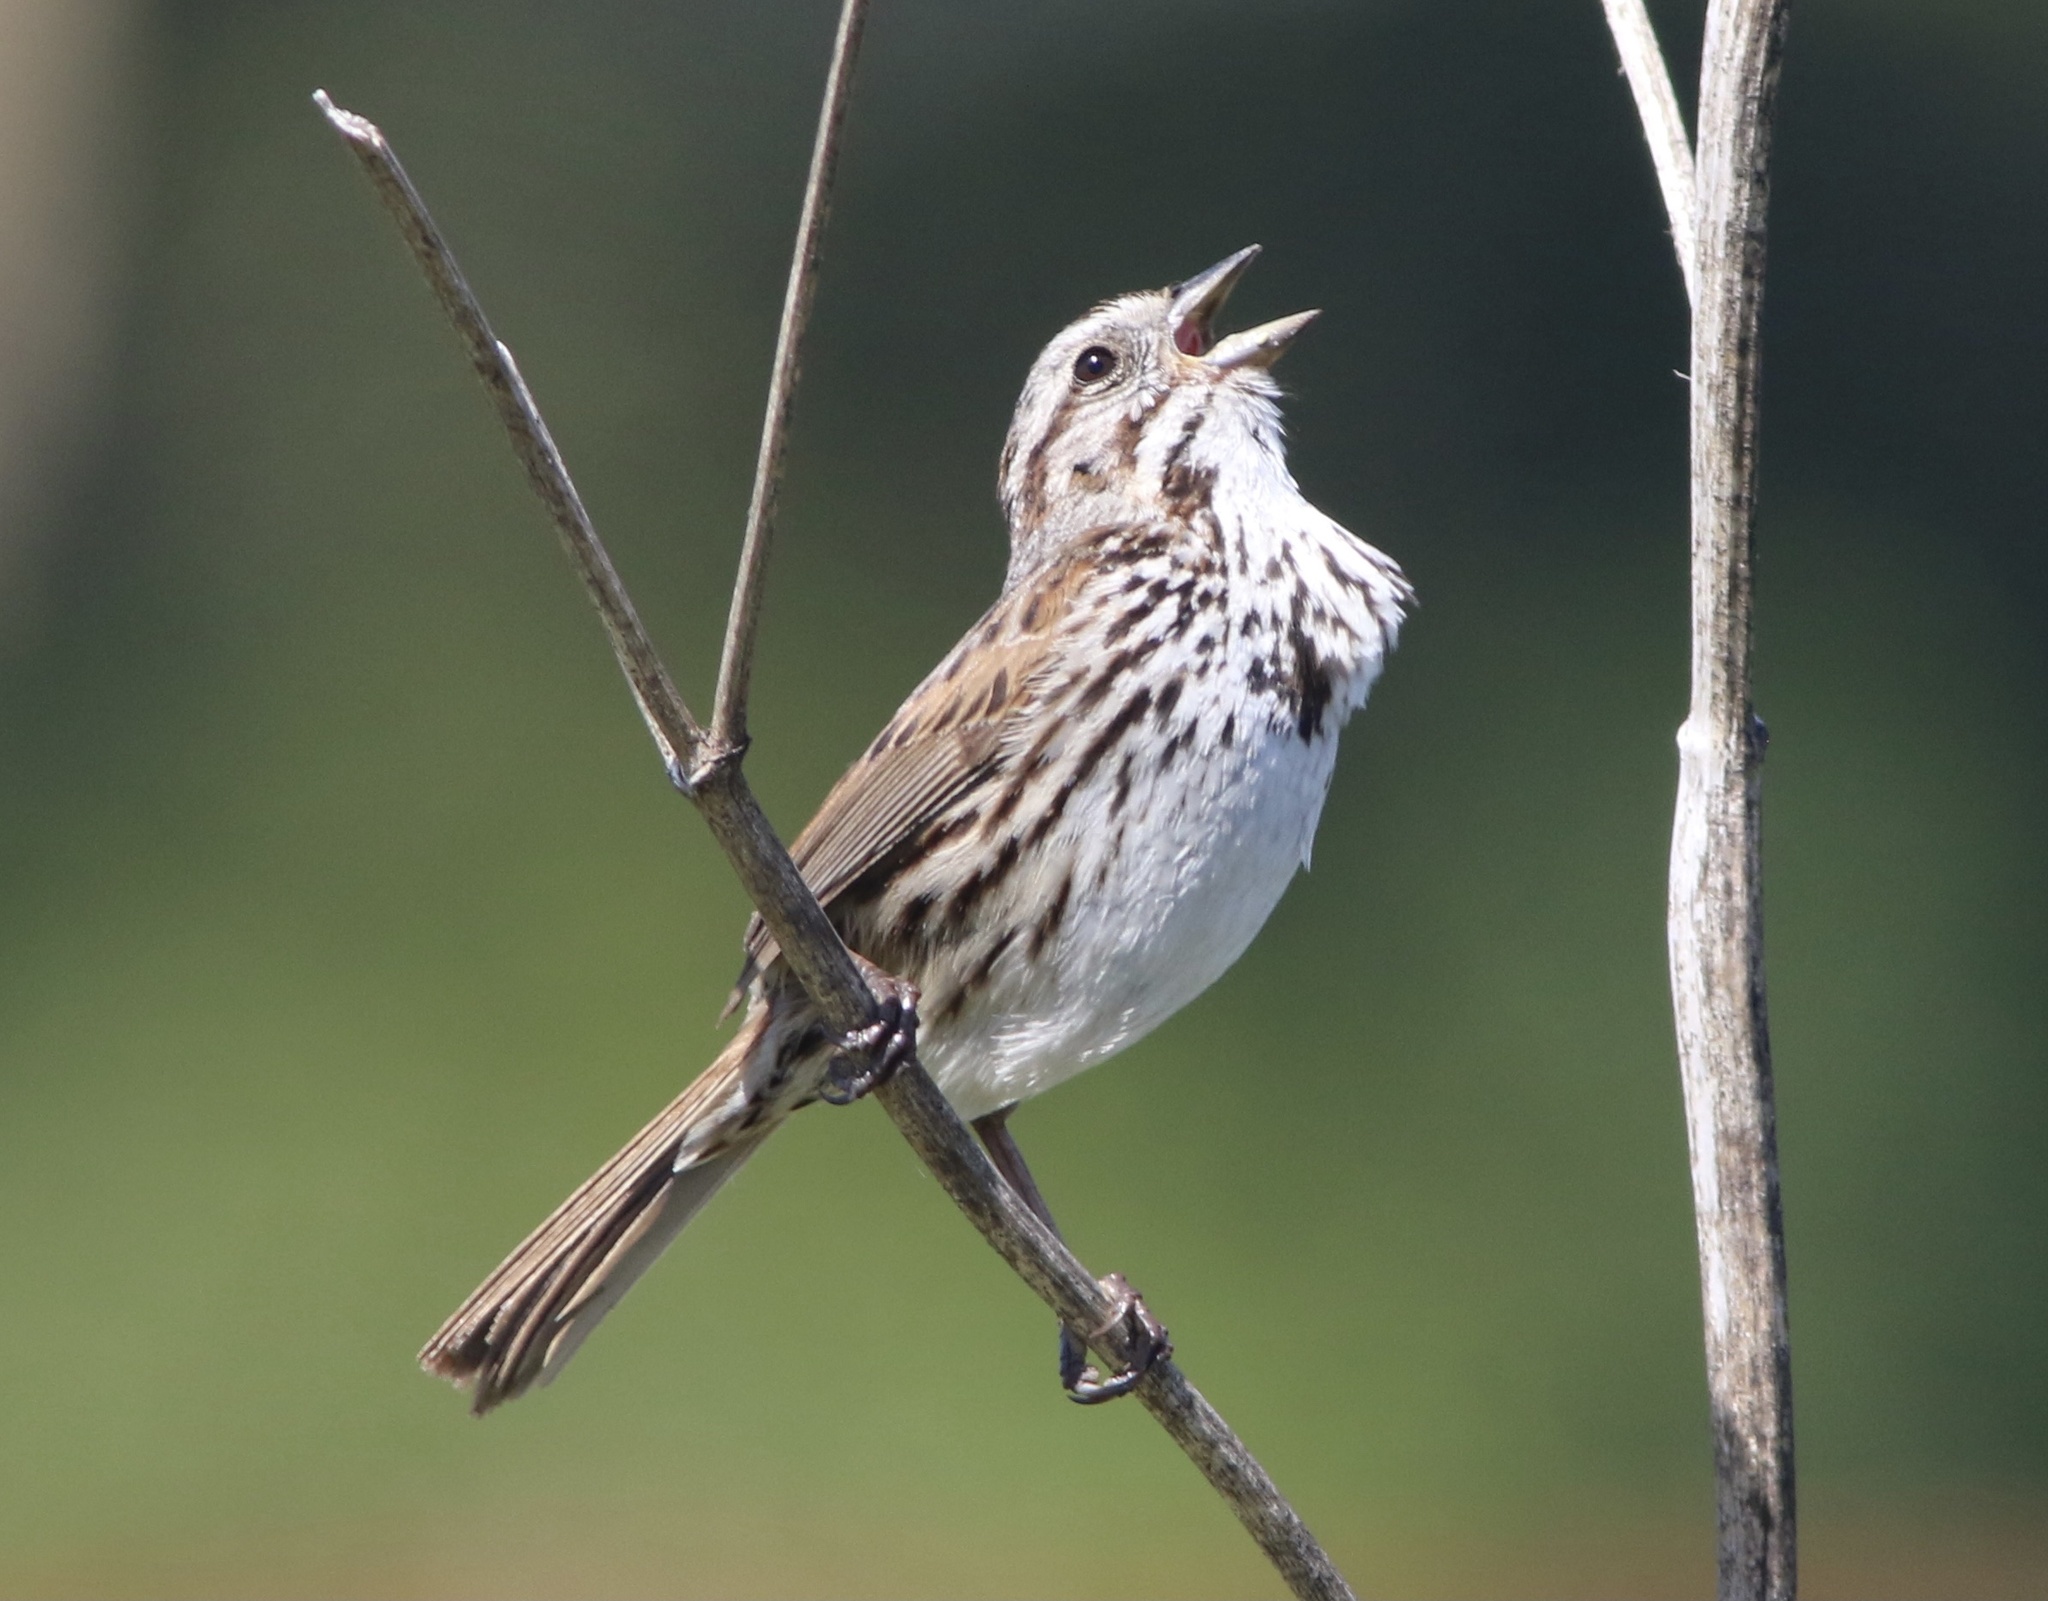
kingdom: Animalia
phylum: Chordata
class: Aves
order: Passeriformes
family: Passerellidae
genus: Melospiza
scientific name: Melospiza melodia
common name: Song sparrow
